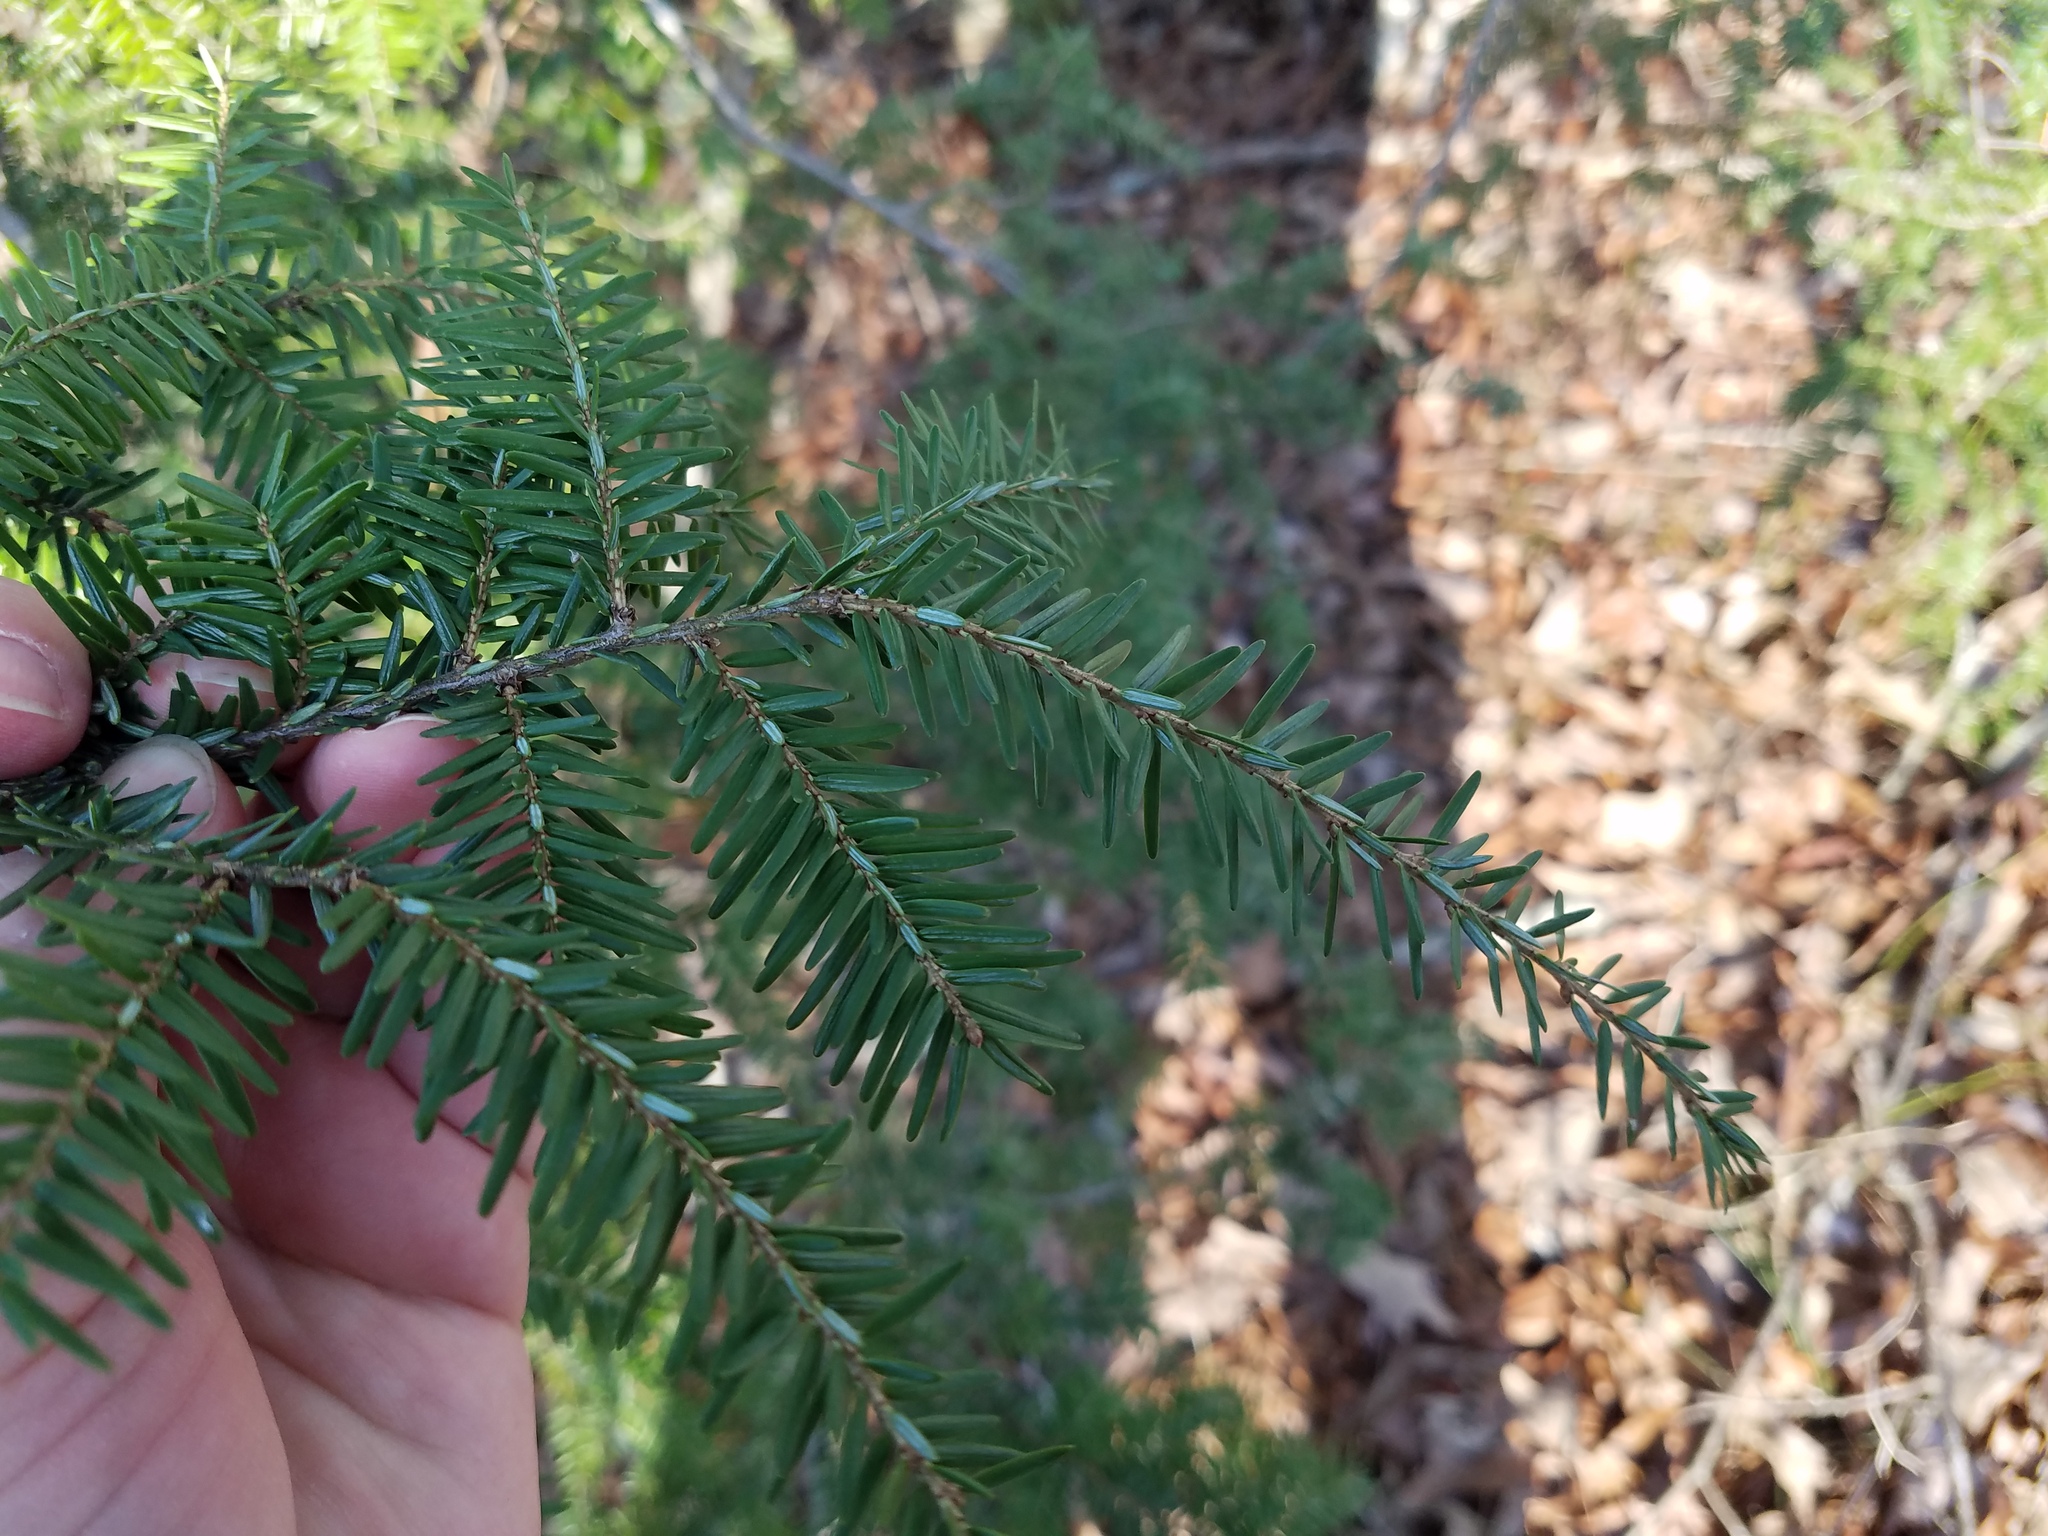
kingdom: Plantae
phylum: Tracheophyta
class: Pinopsida
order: Pinales
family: Pinaceae
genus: Tsuga
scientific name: Tsuga canadensis
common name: Eastern hemlock
